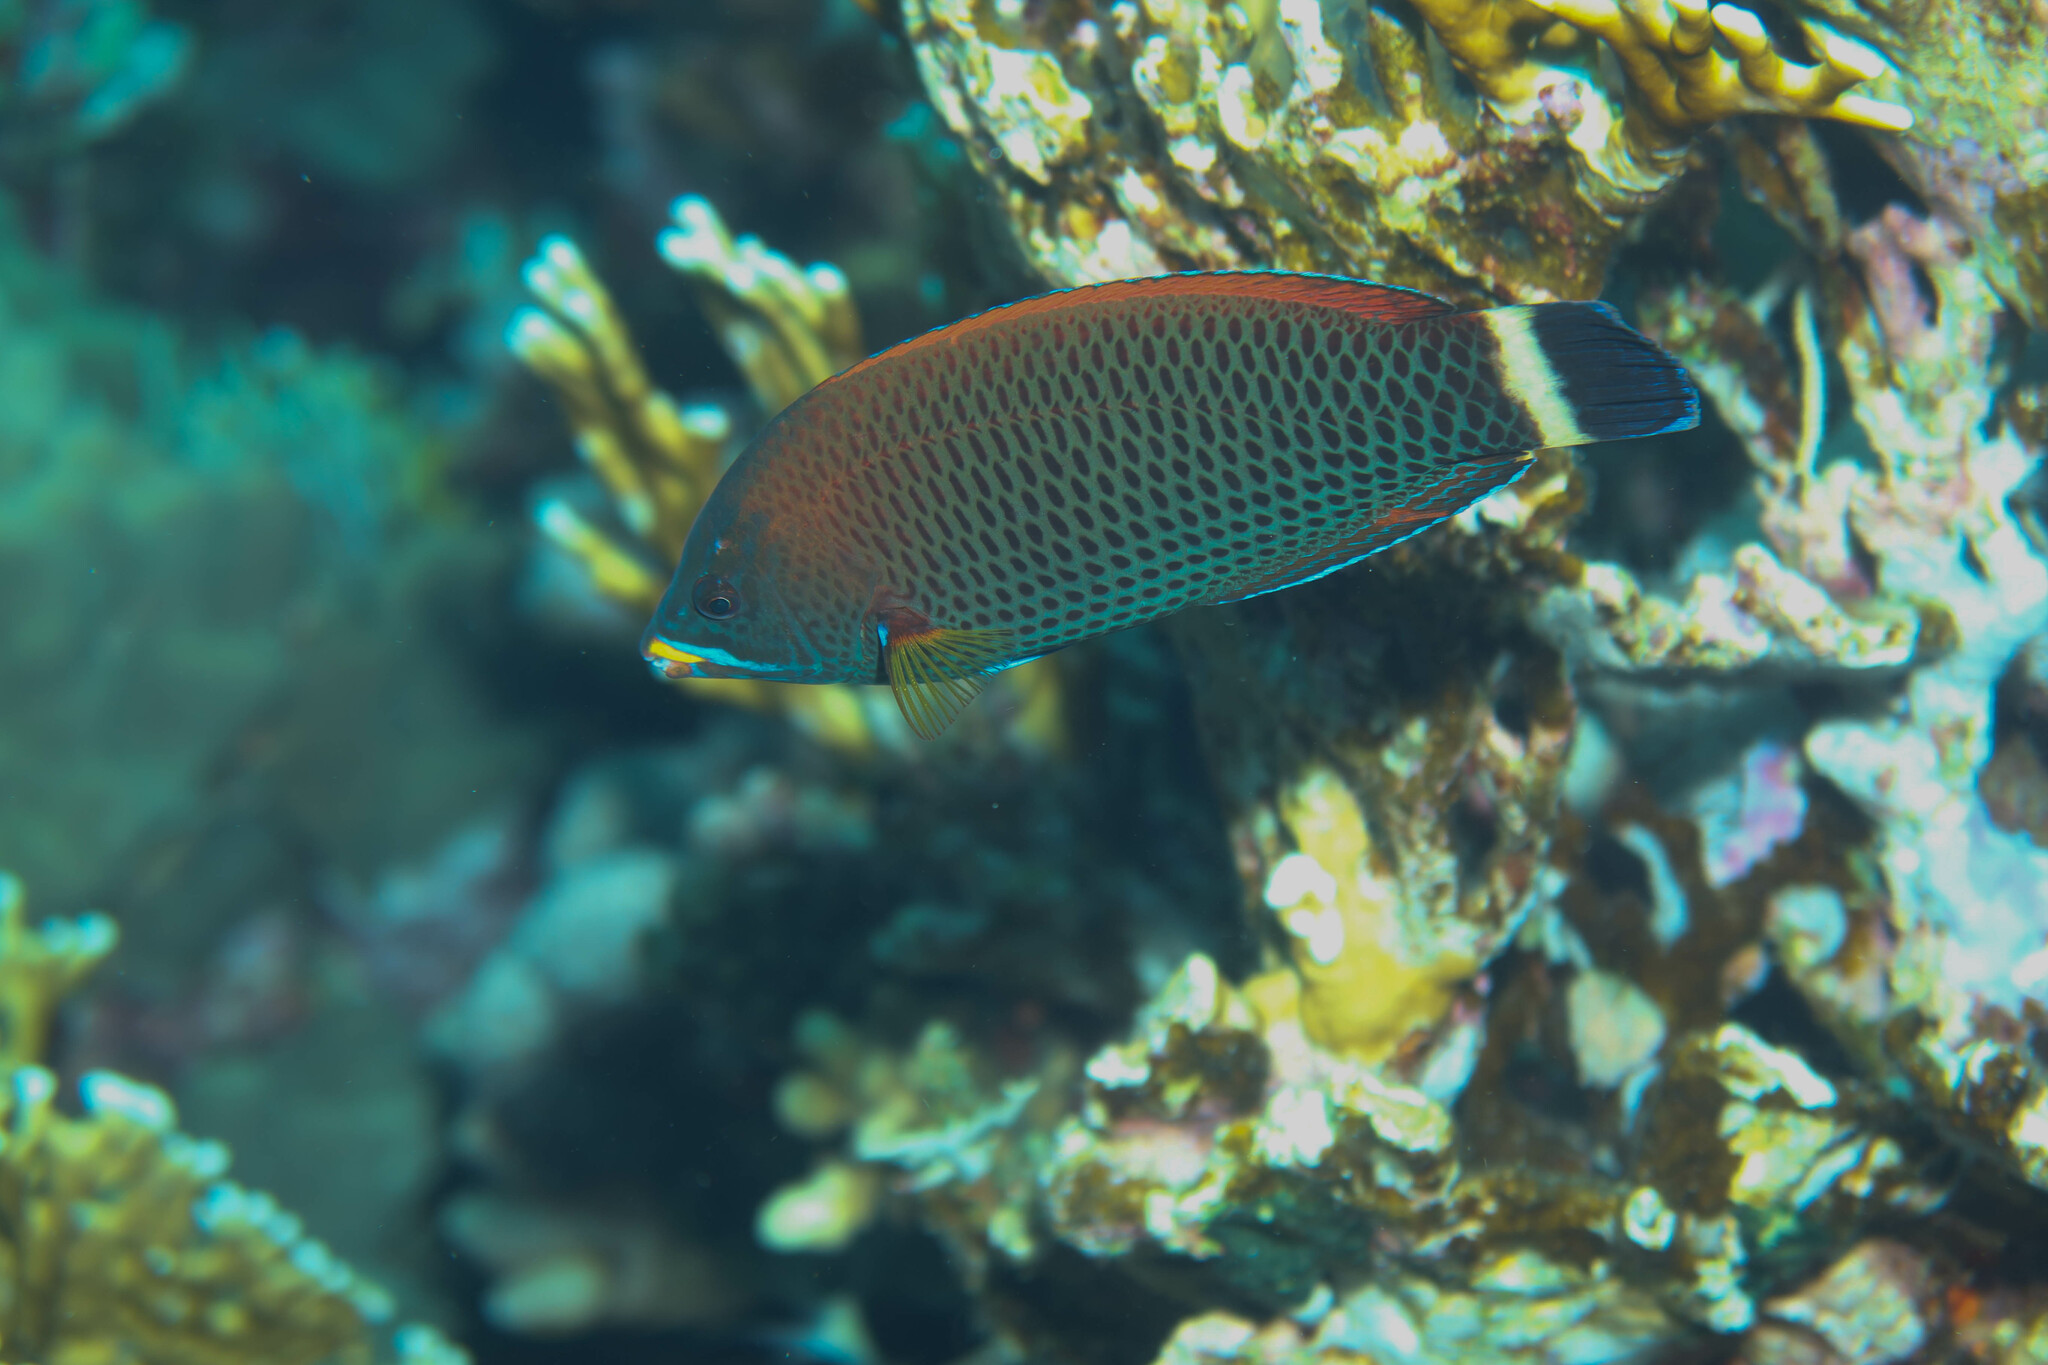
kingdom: Animalia
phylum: Chordata
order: Perciformes
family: Labridae
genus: Pseudodax
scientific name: Pseudodax moluccanus
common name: Chiseltooth wrasse
